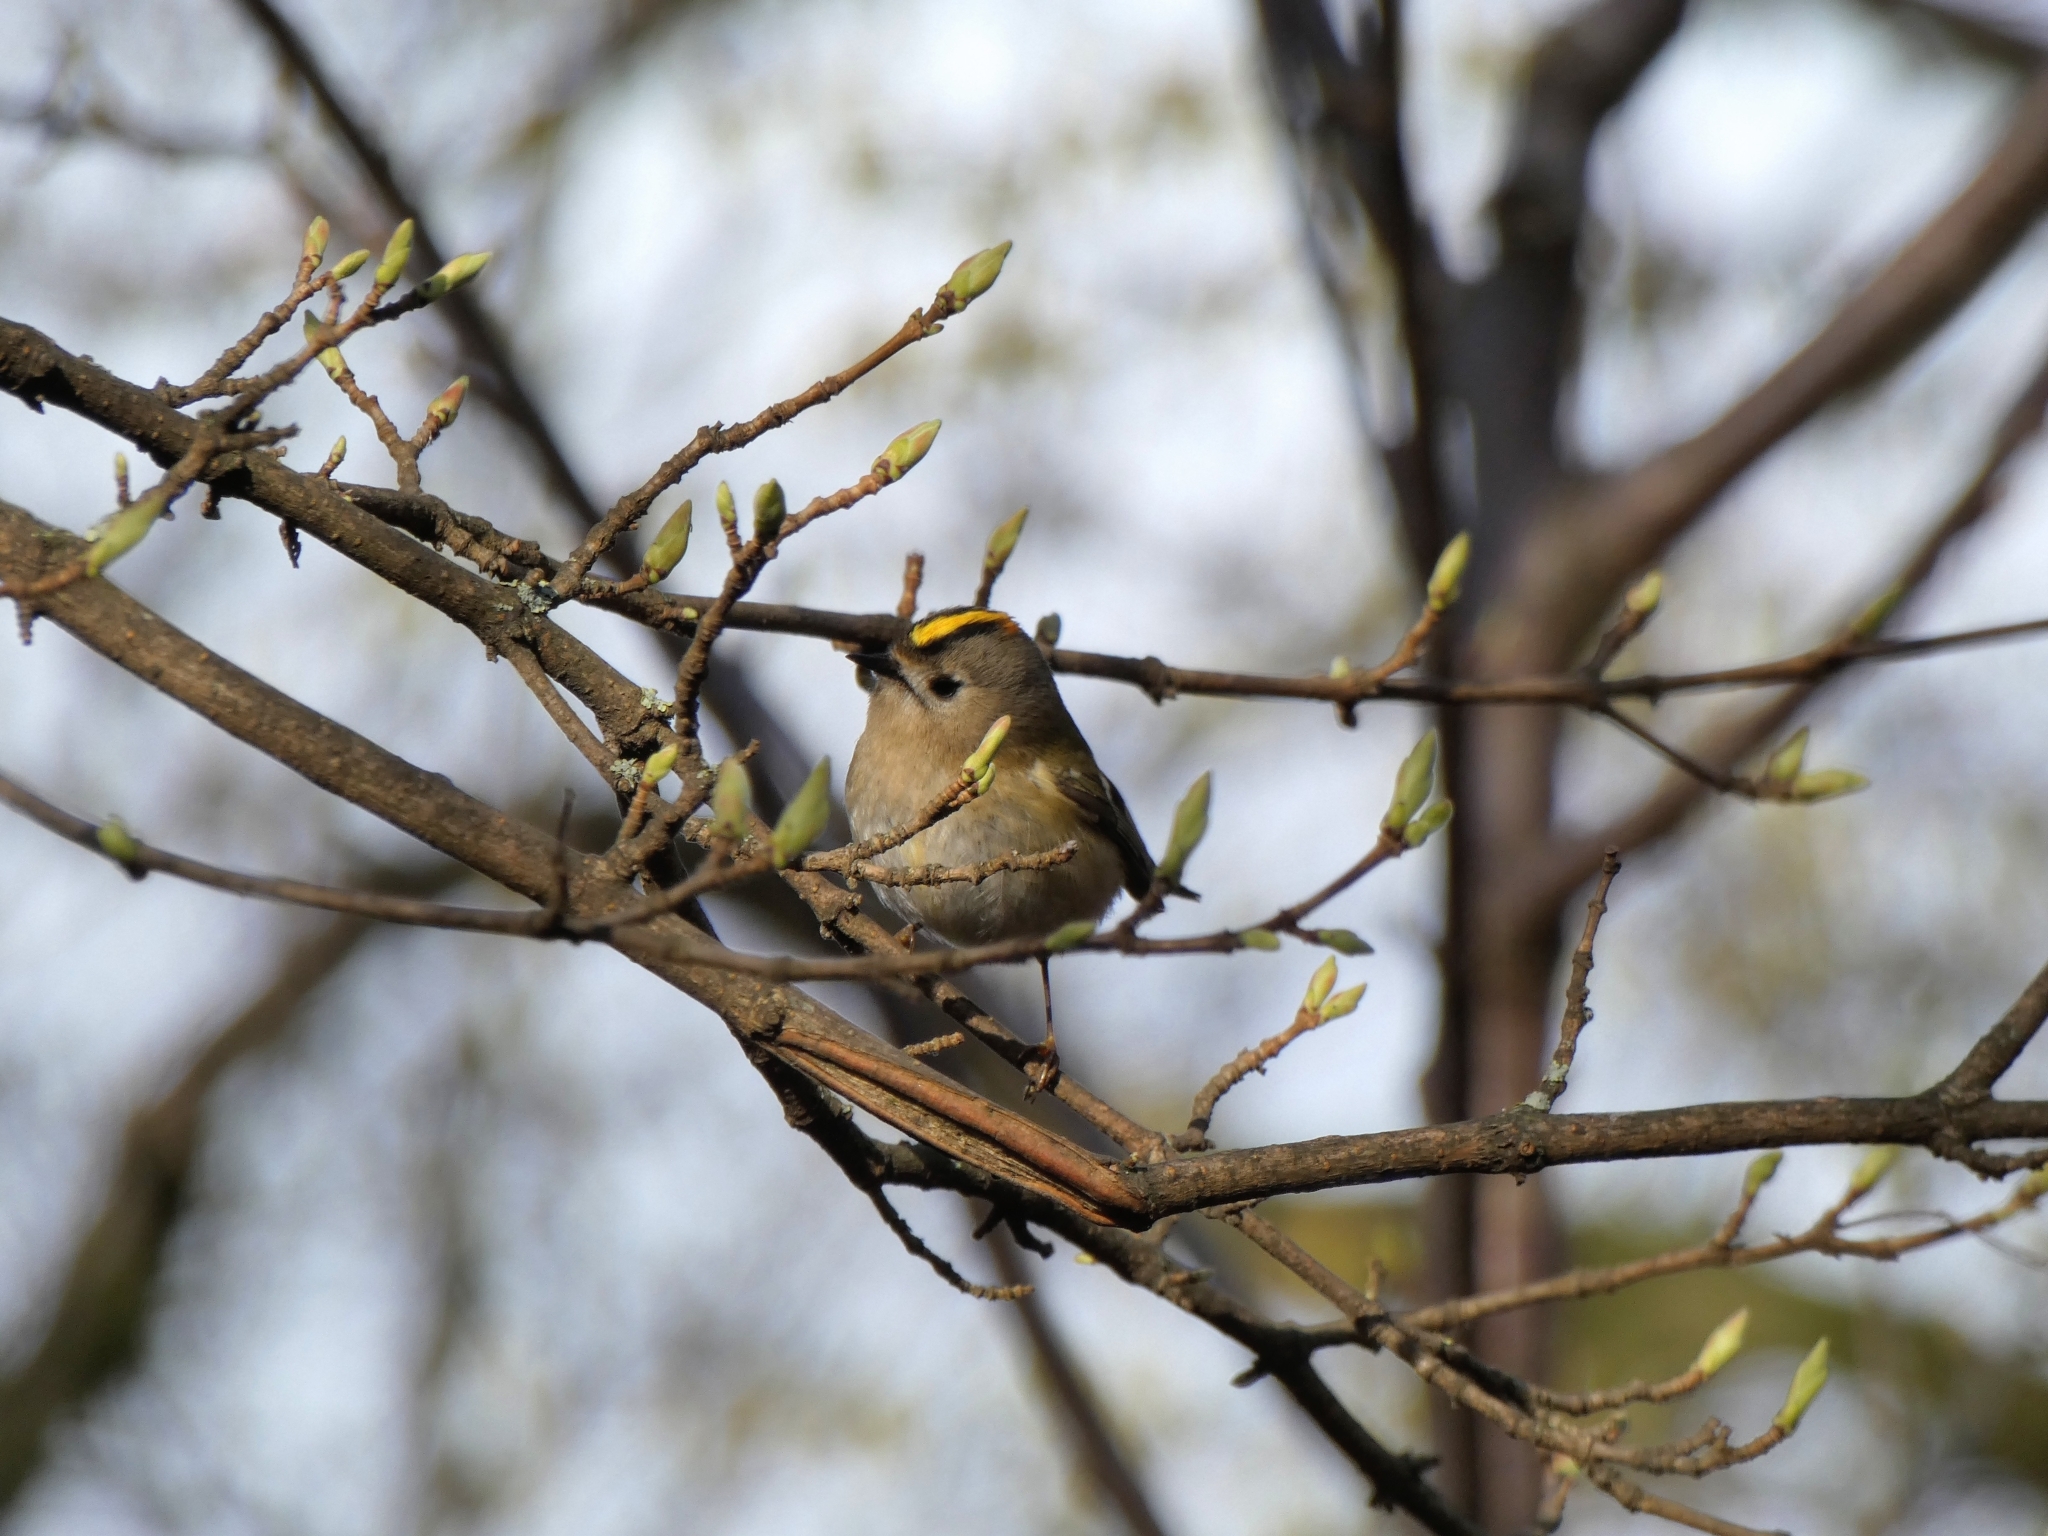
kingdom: Animalia
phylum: Chordata
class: Aves
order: Passeriformes
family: Regulidae
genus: Regulus
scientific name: Regulus regulus
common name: Goldcrest
